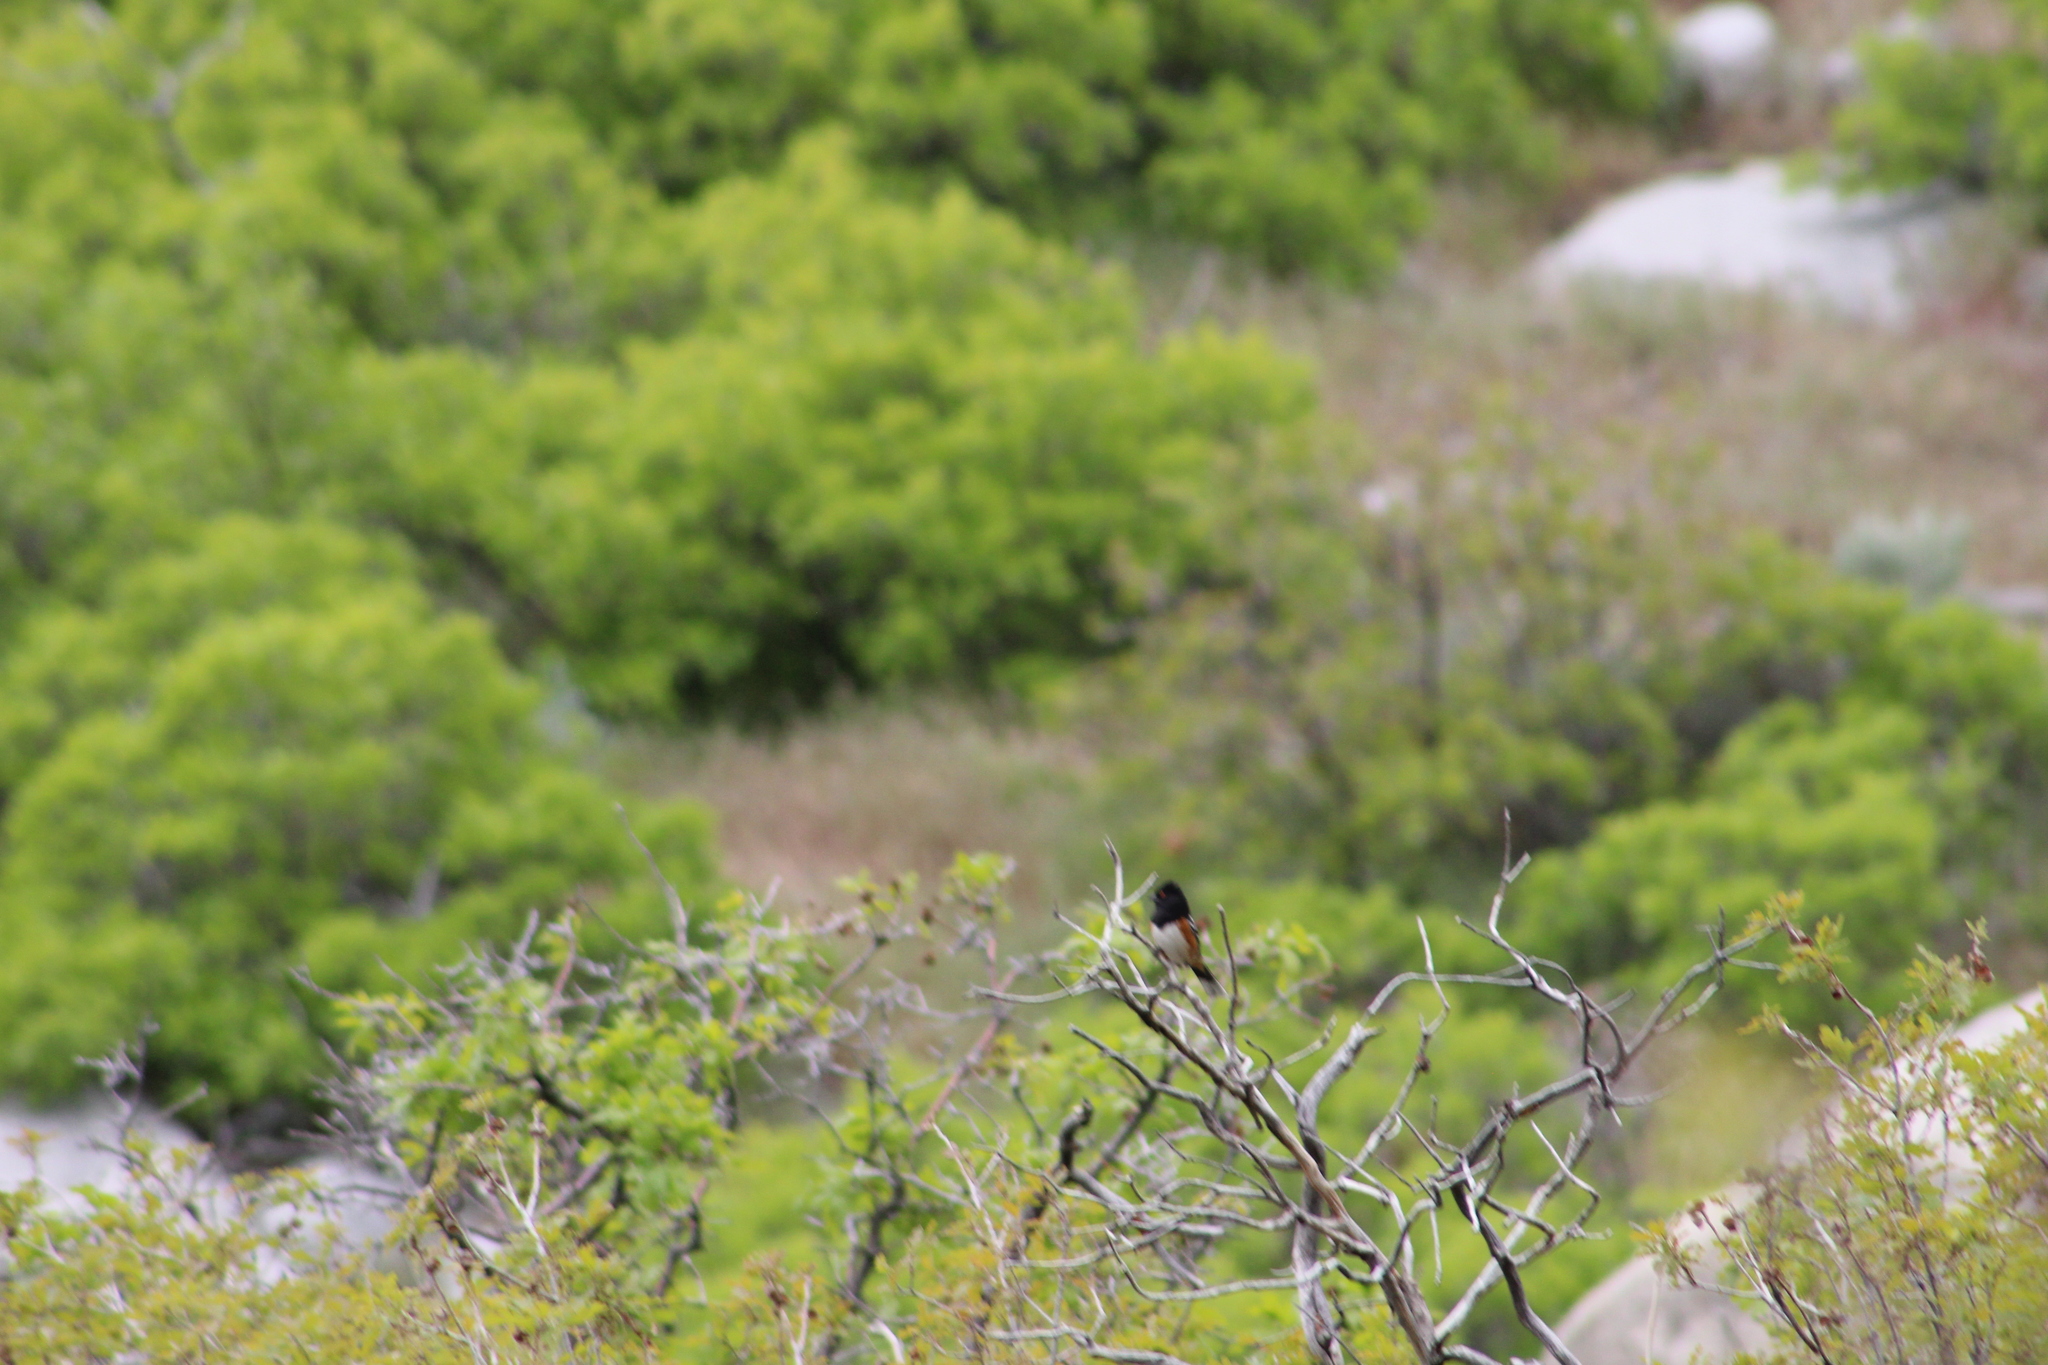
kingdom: Animalia
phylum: Chordata
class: Aves
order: Passeriformes
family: Passerellidae
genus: Pipilo
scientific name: Pipilo maculatus
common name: Spotted towhee
